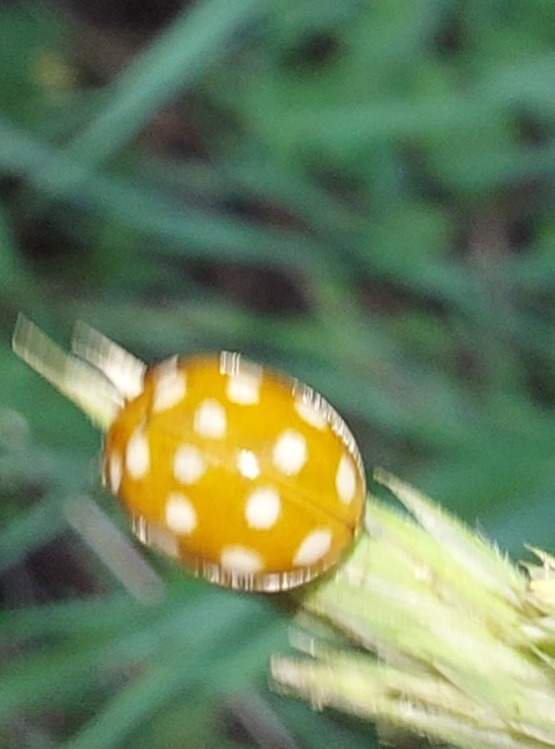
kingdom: Animalia
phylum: Arthropoda
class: Insecta
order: Coleoptera
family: Coccinellidae
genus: Halyzia
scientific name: Halyzia sedecimguttata
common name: Orange ladybird
